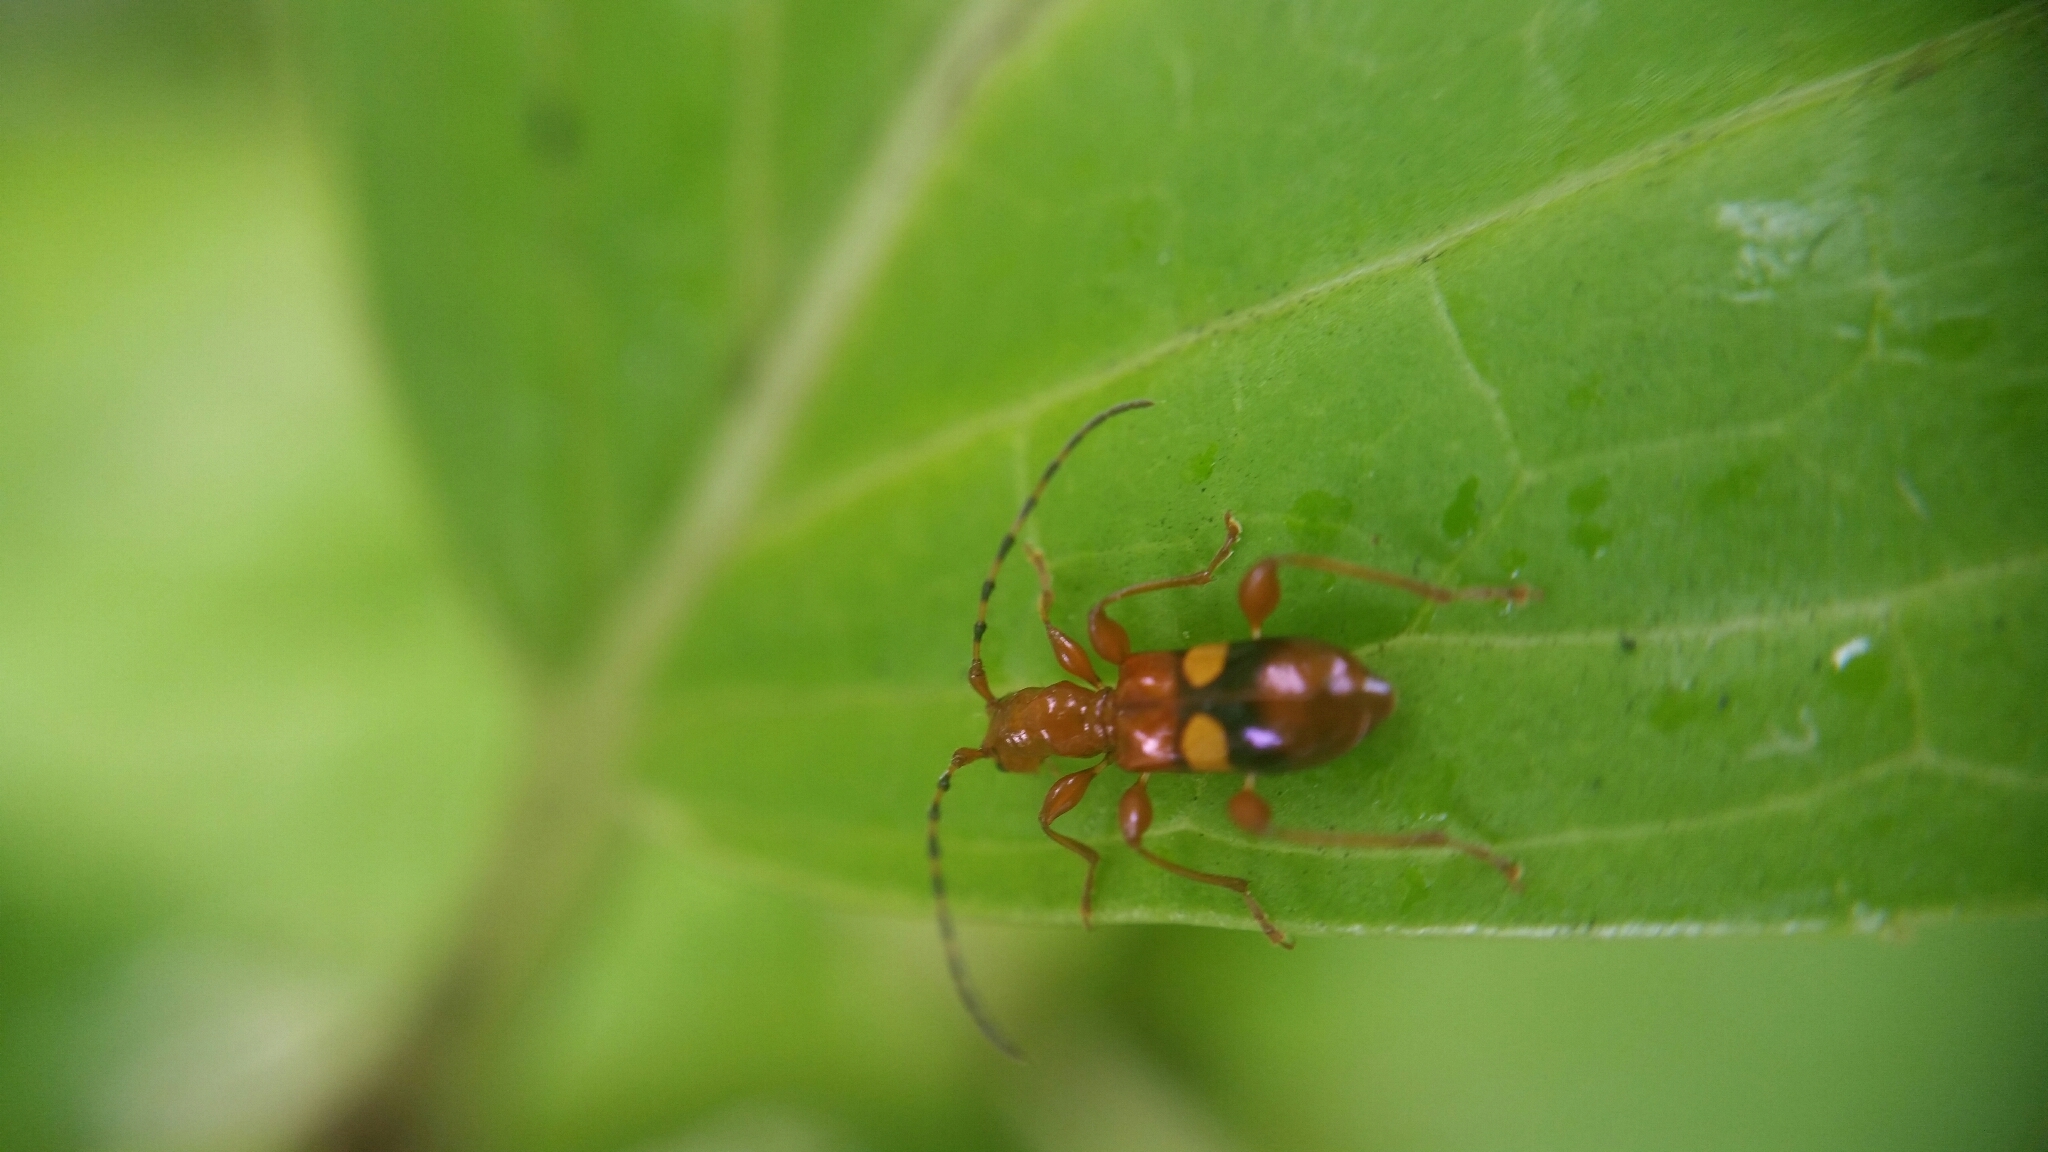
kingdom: Animalia
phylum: Arthropoda
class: Insecta
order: Coleoptera
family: Cerambycidae
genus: Zorion
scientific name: Zorion australe
